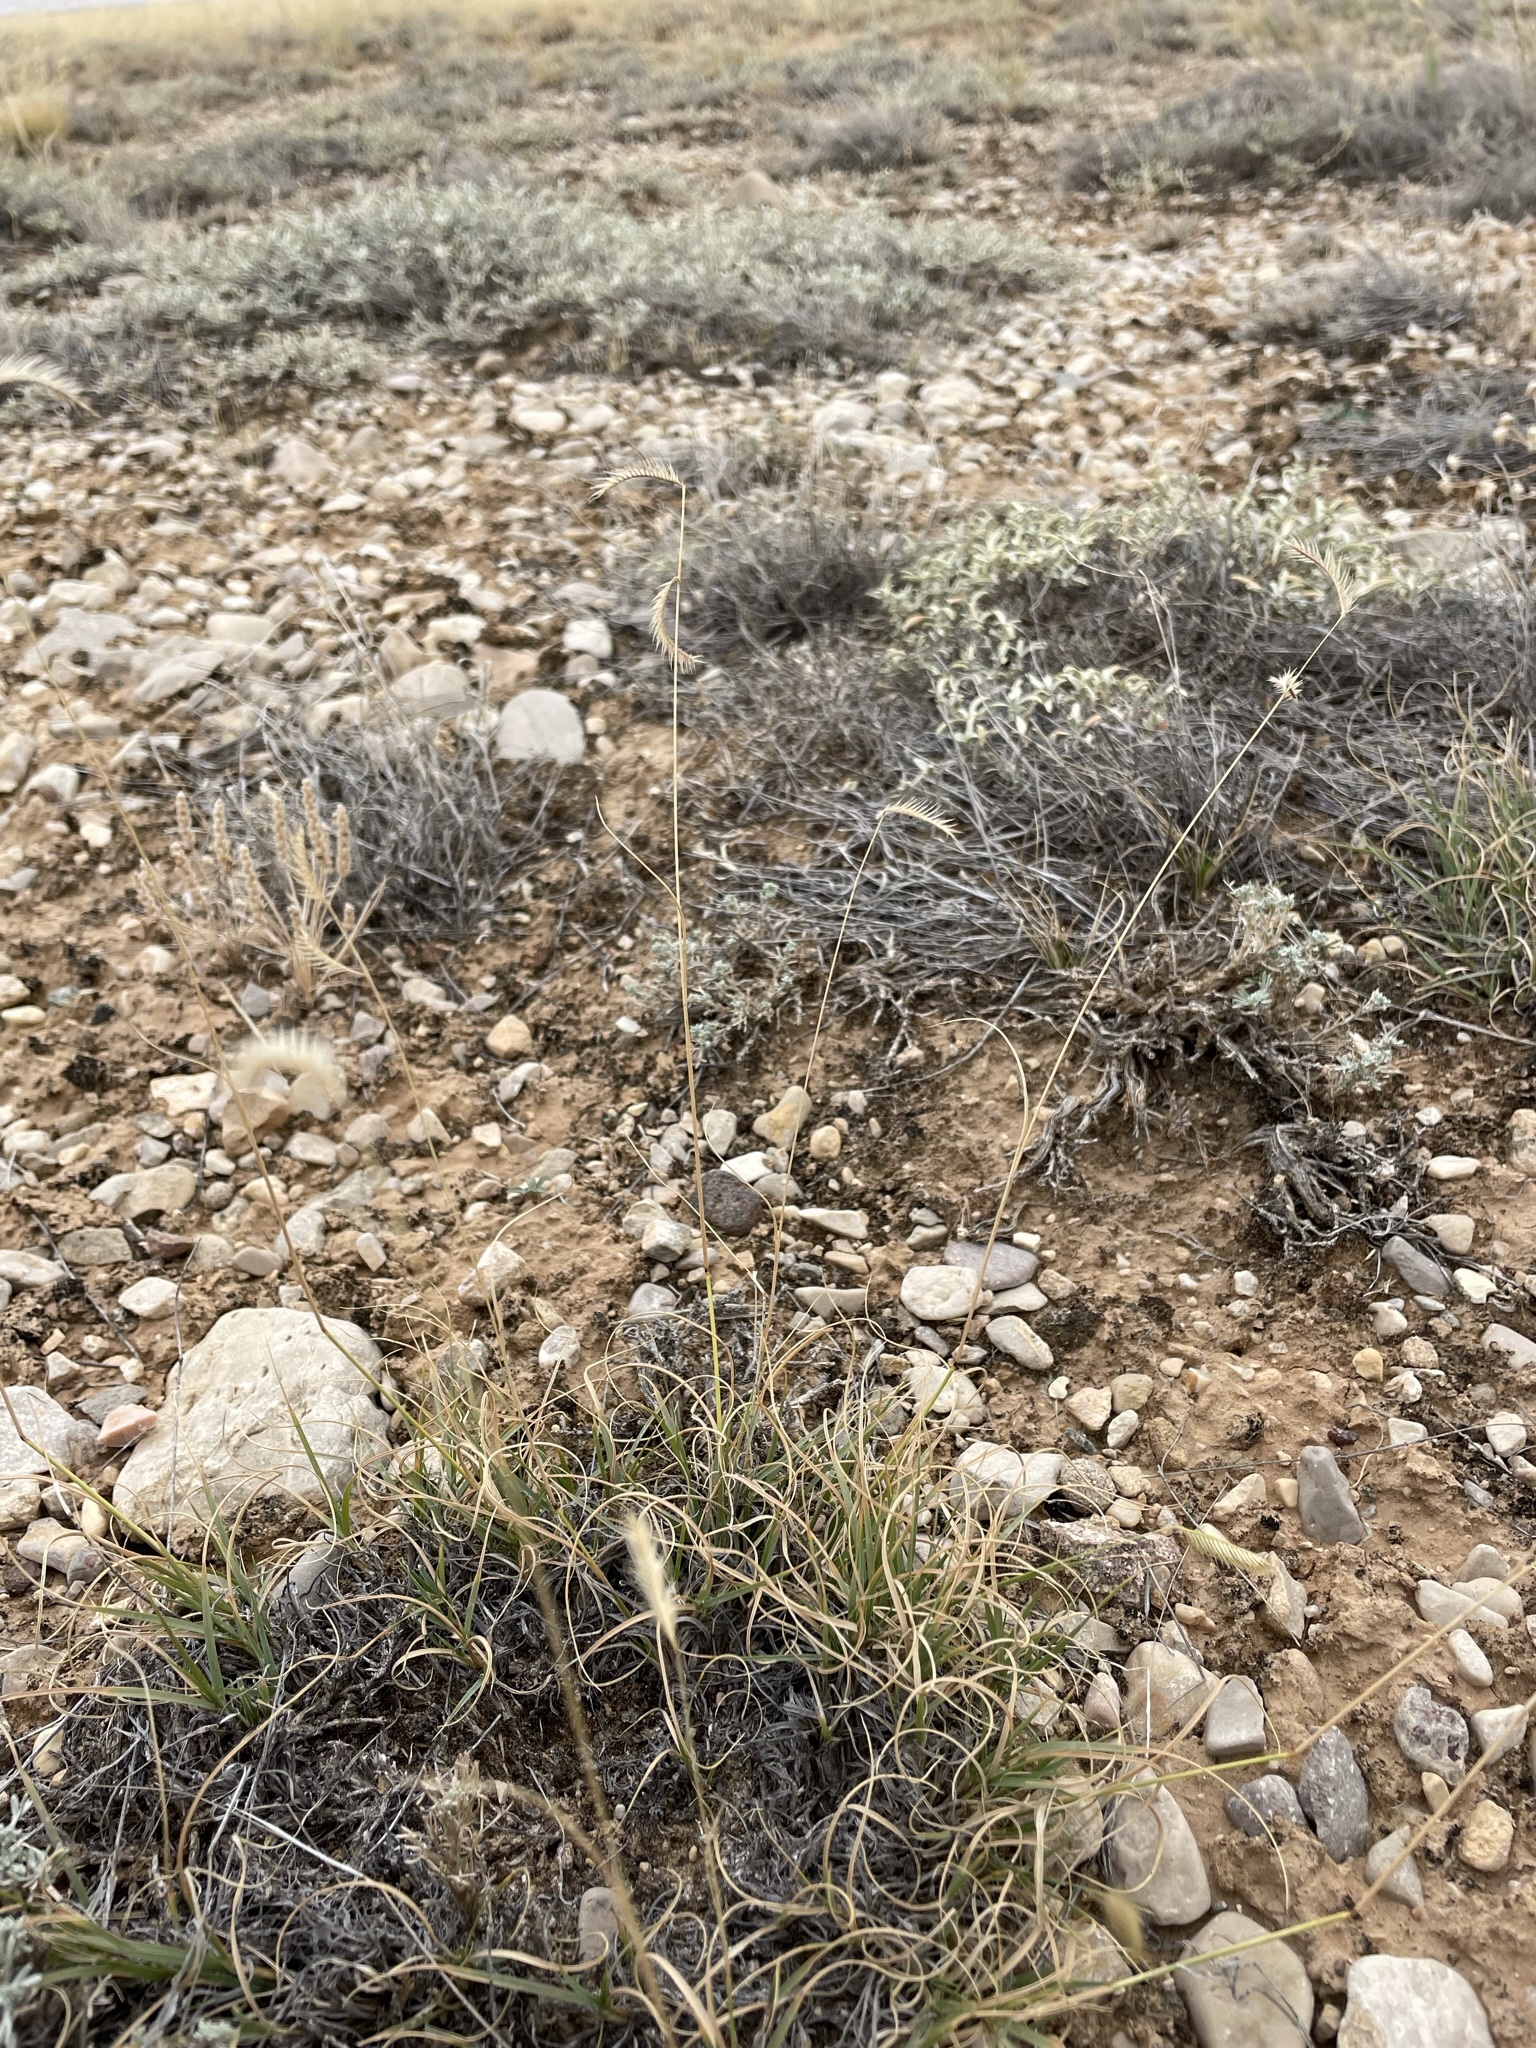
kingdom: Plantae
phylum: Tracheophyta
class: Liliopsida
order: Poales
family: Poaceae
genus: Bouteloua
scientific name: Bouteloua gracilis
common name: Blue grama
